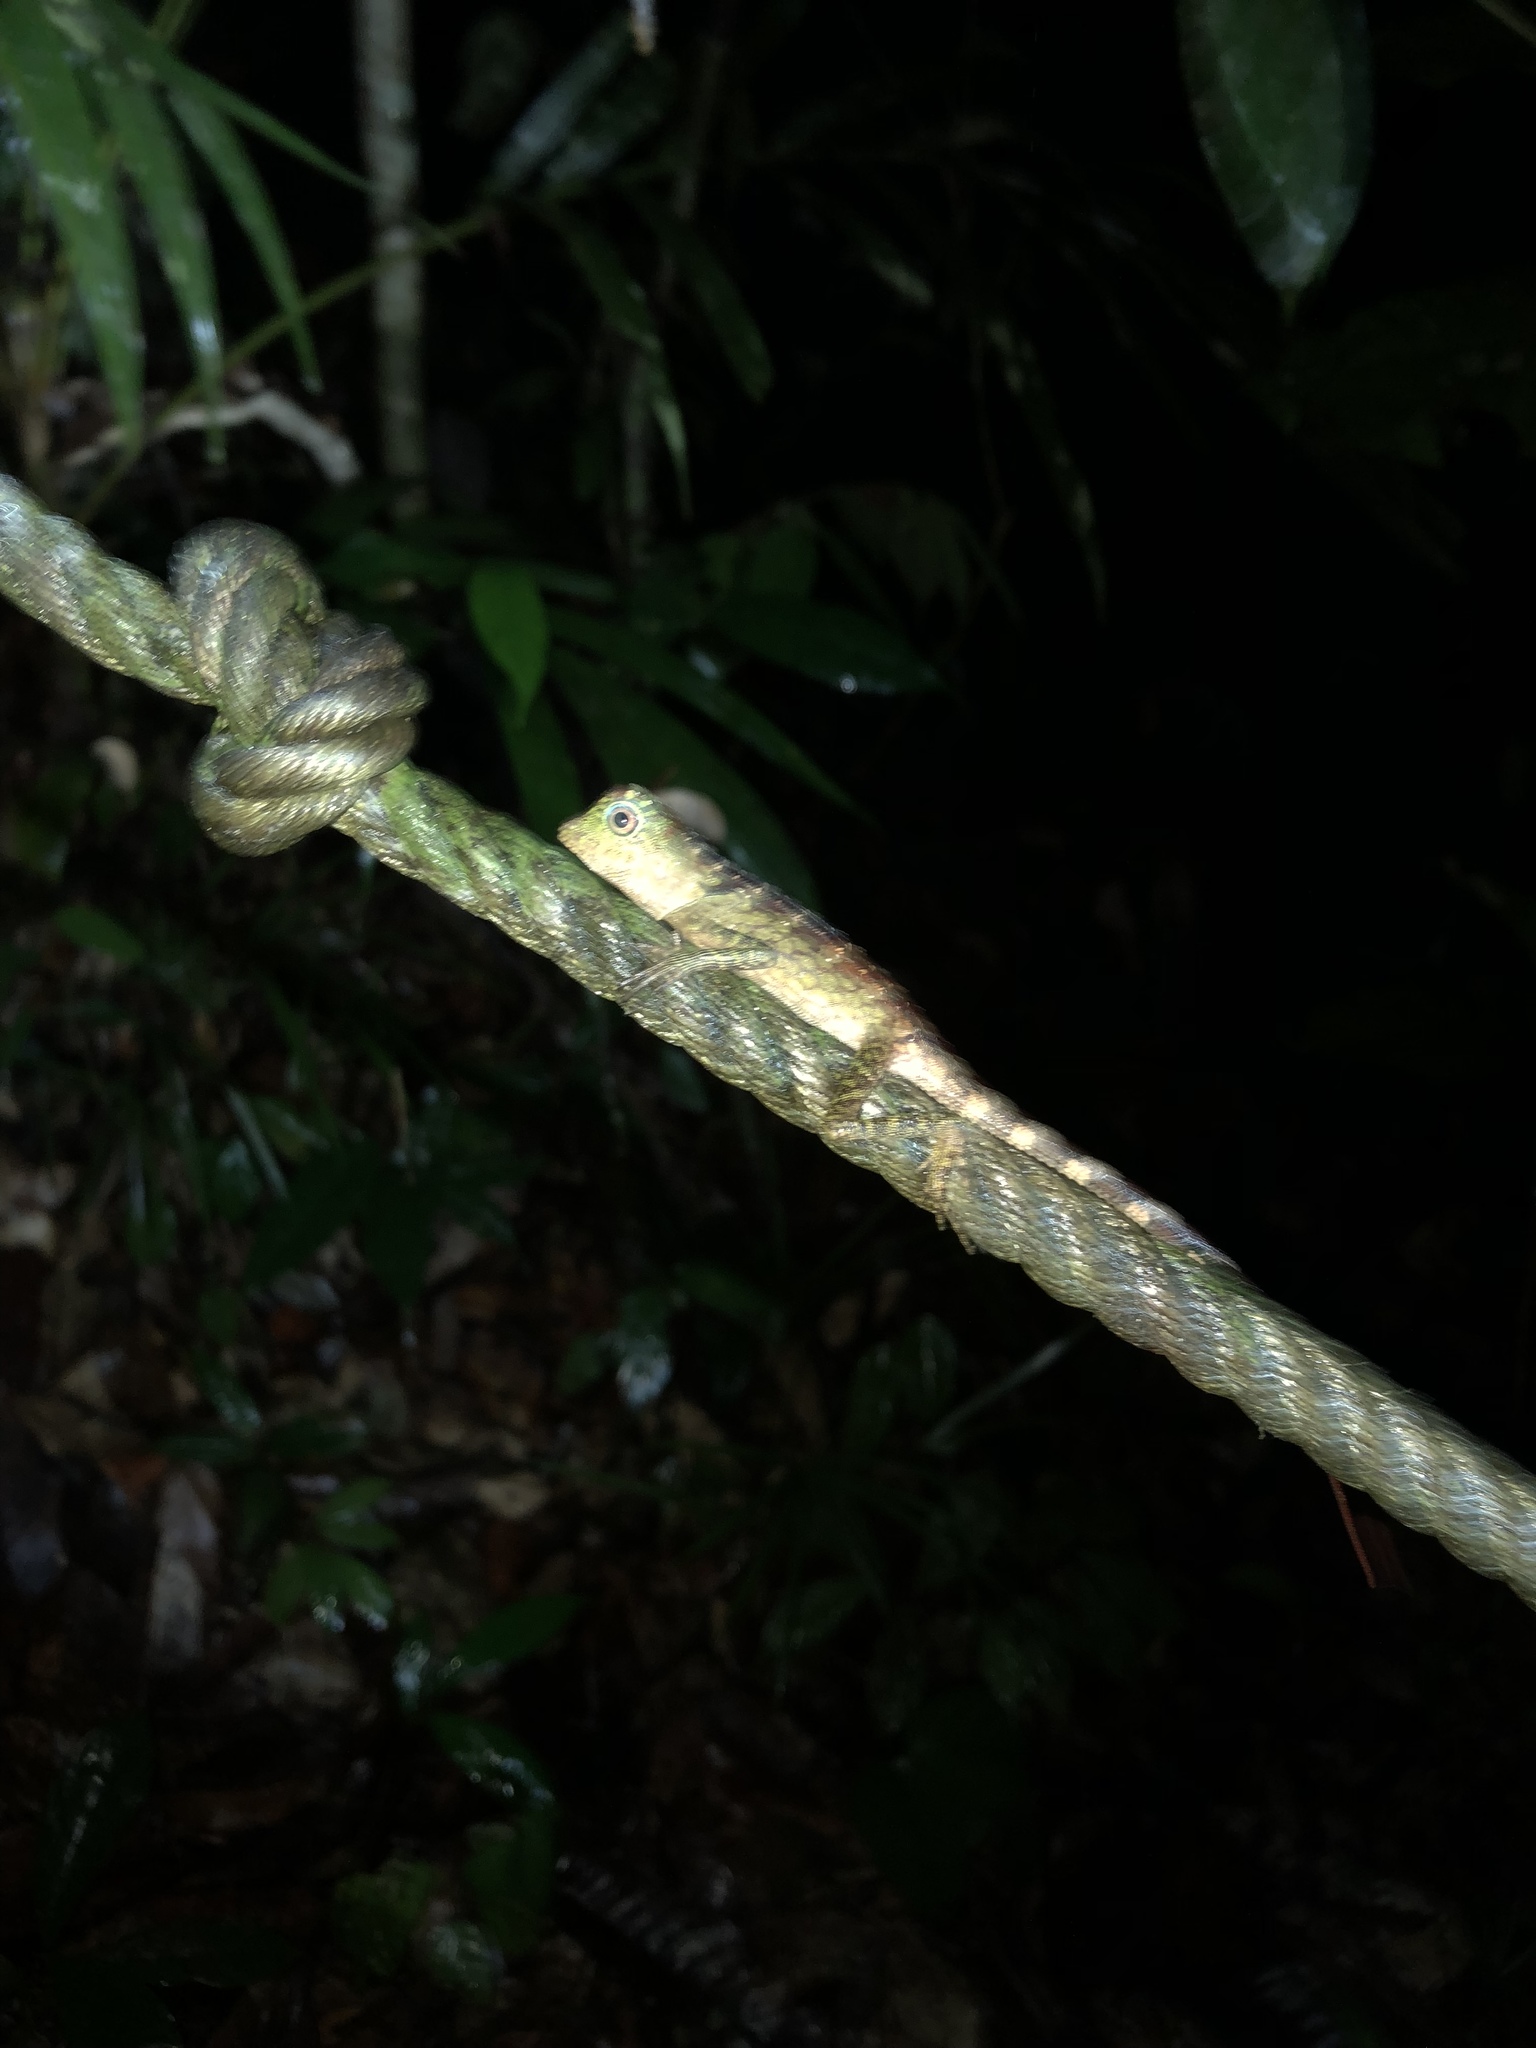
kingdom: Animalia
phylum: Chordata
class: Squamata
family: Agamidae
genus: Gonocephalus
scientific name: Gonocephalus bornensis
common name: Borneo forest dragon
